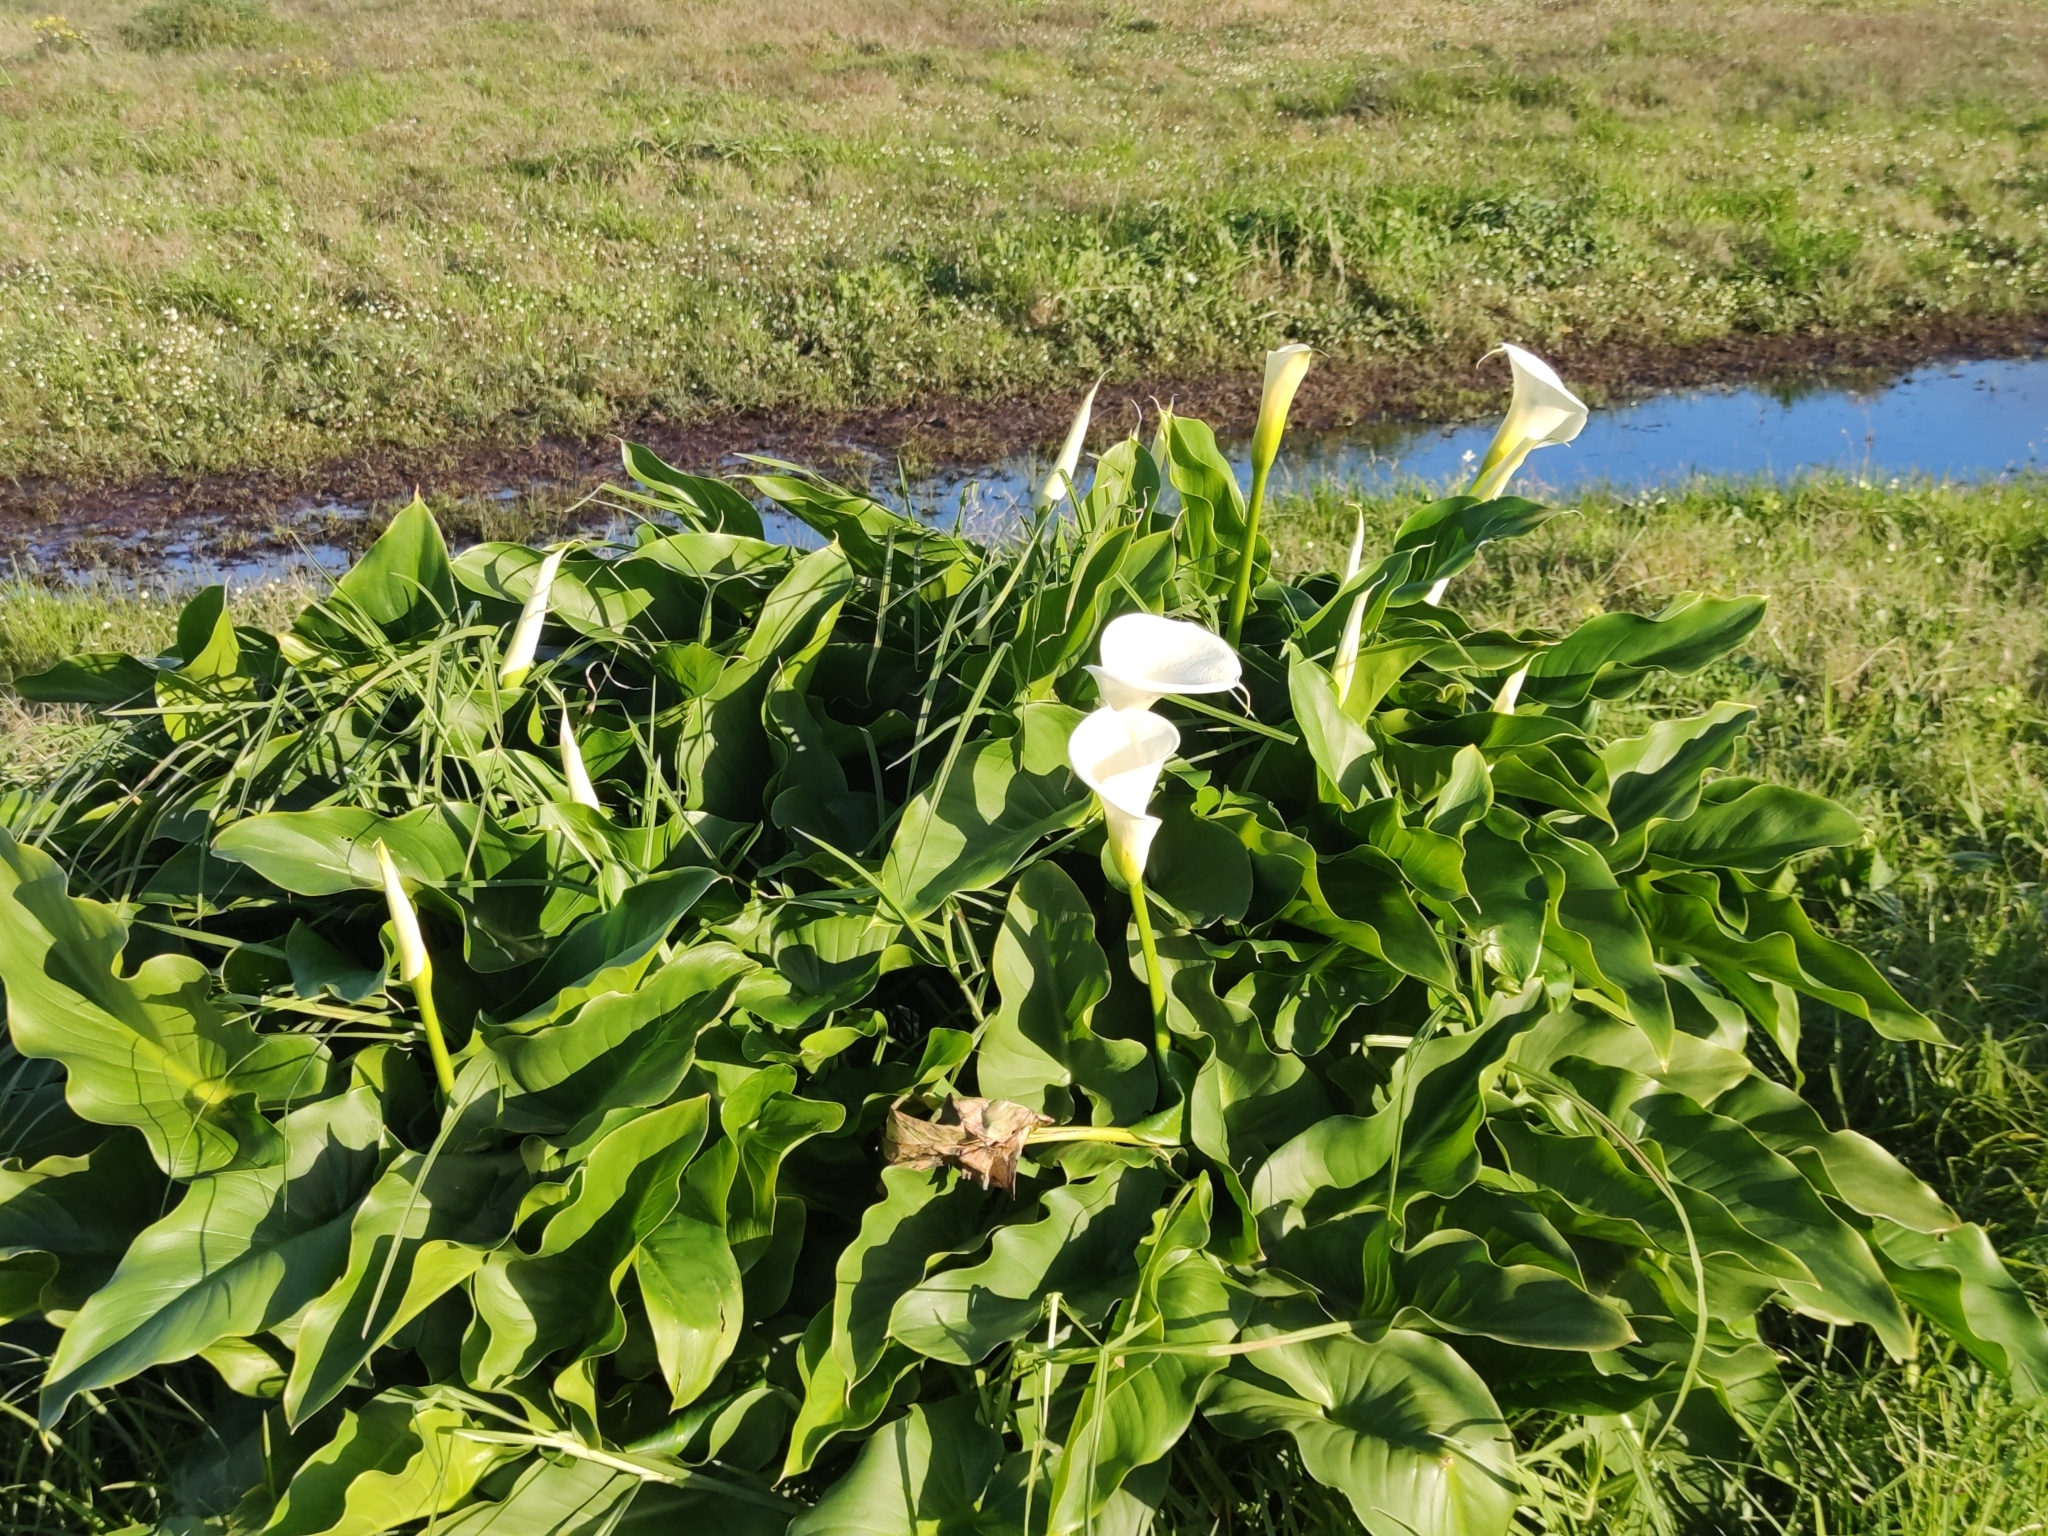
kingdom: Plantae
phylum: Tracheophyta
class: Liliopsida
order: Alismatales
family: Araceae
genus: Zantedeschia
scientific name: Zantedeschia aethiopica
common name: Altar-lily
